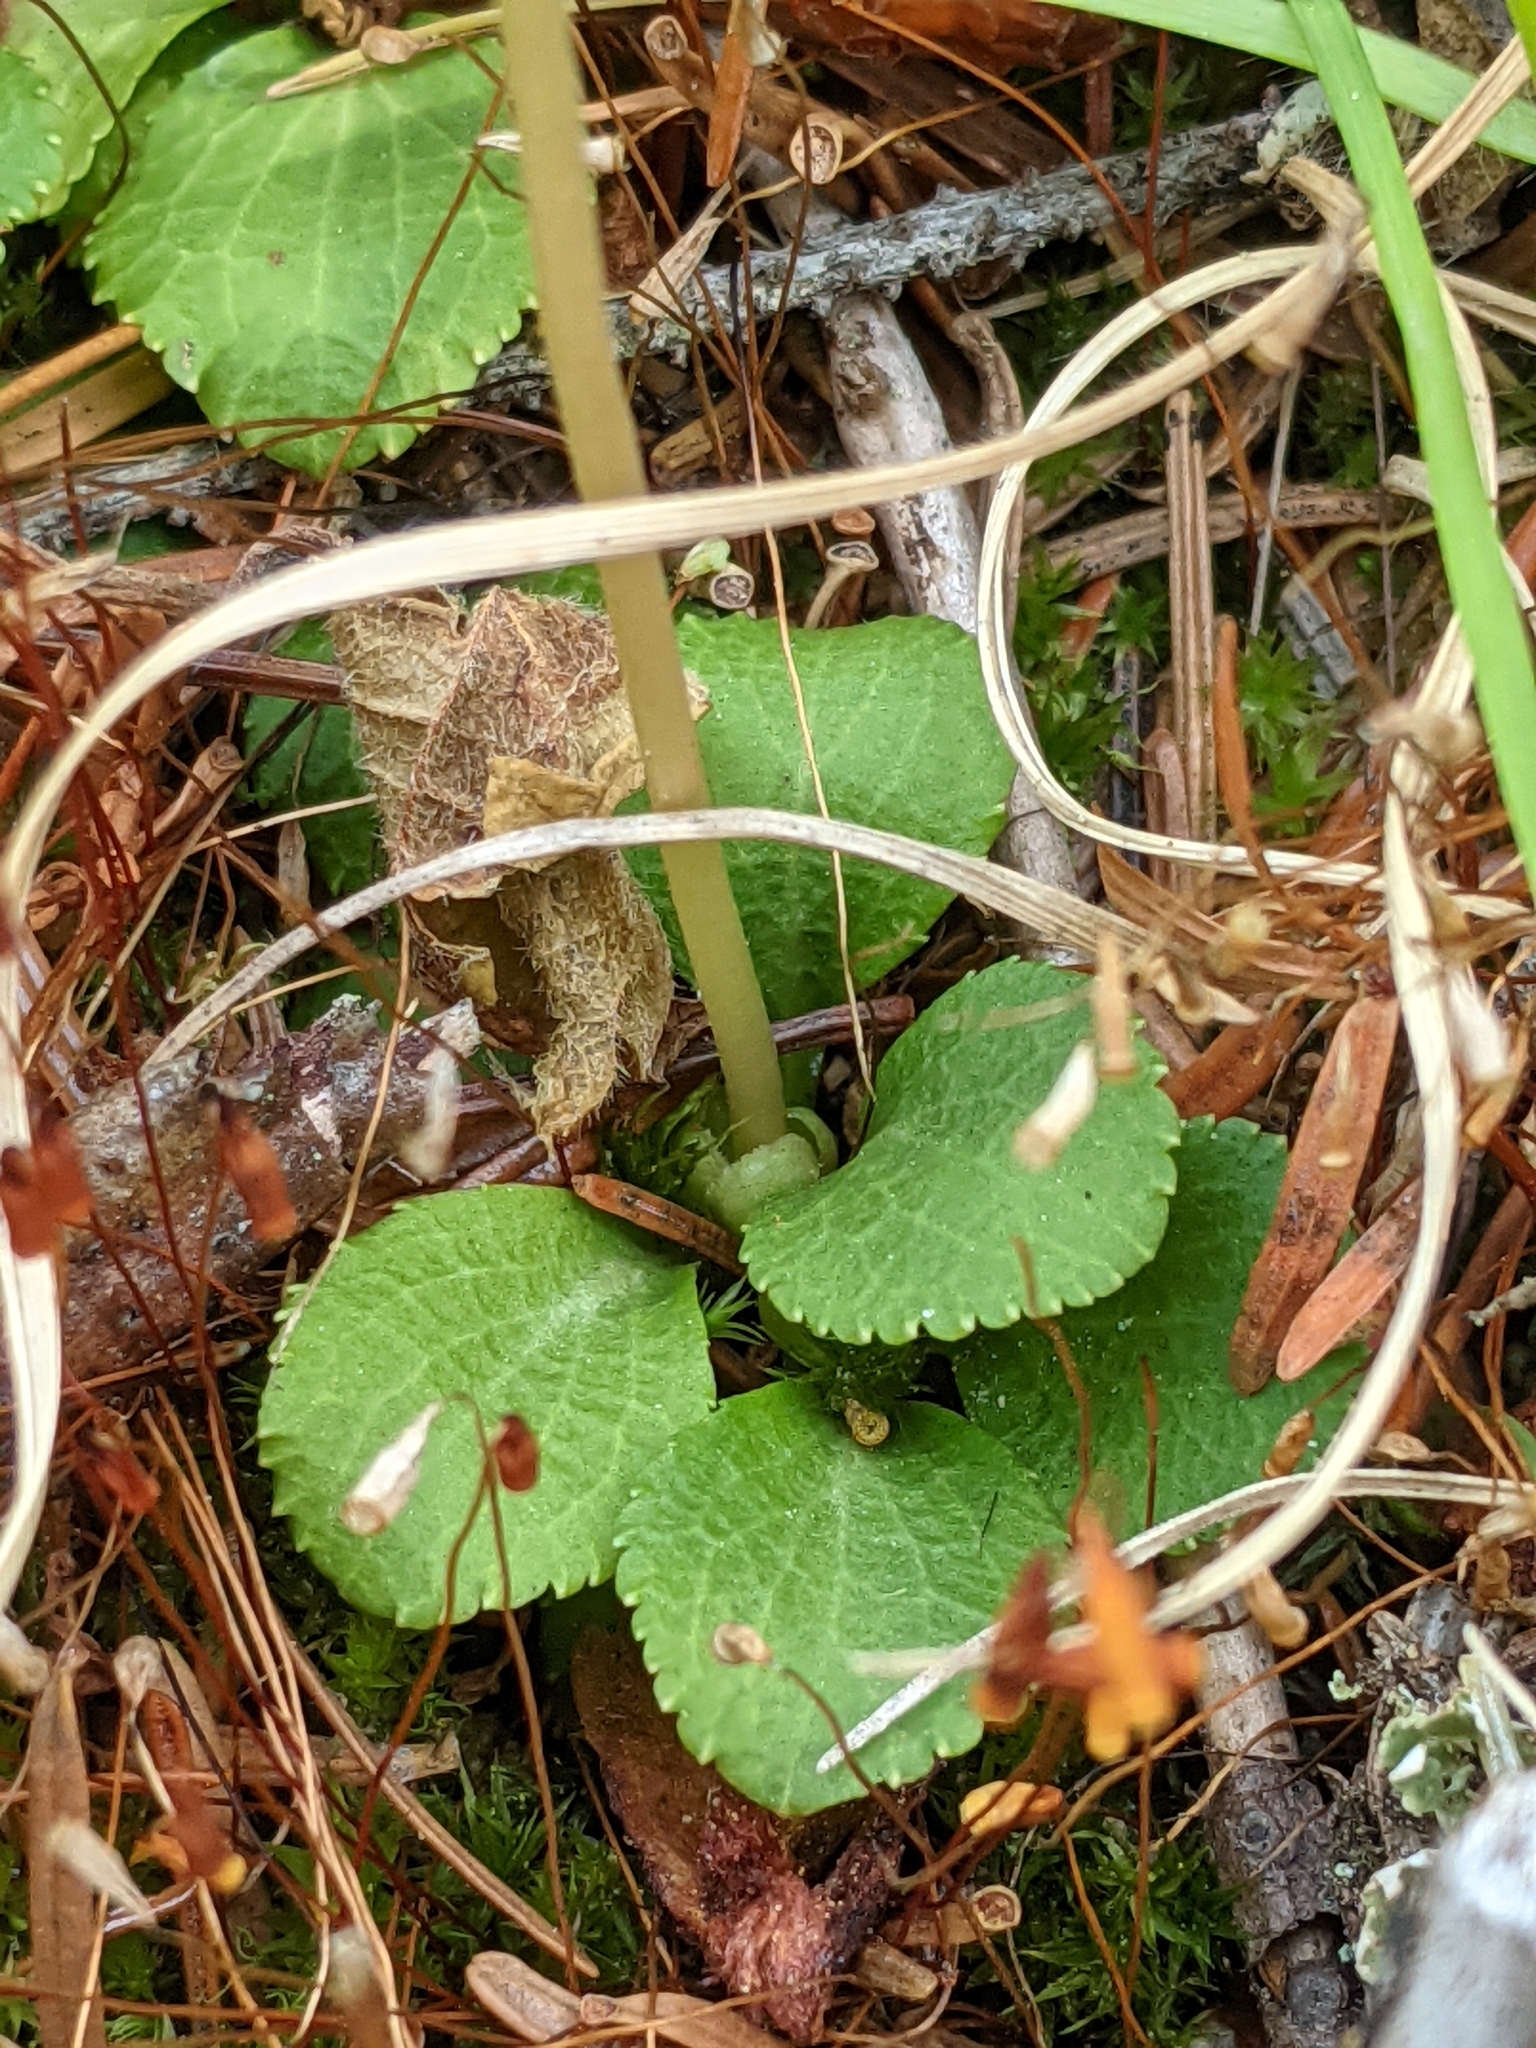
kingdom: Plantae
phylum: Tracheophyta
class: Magnoliopsida
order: Ericales
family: Ericaceae
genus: Moneses
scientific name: Moneses uniflora
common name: One-flowered wintergreen
